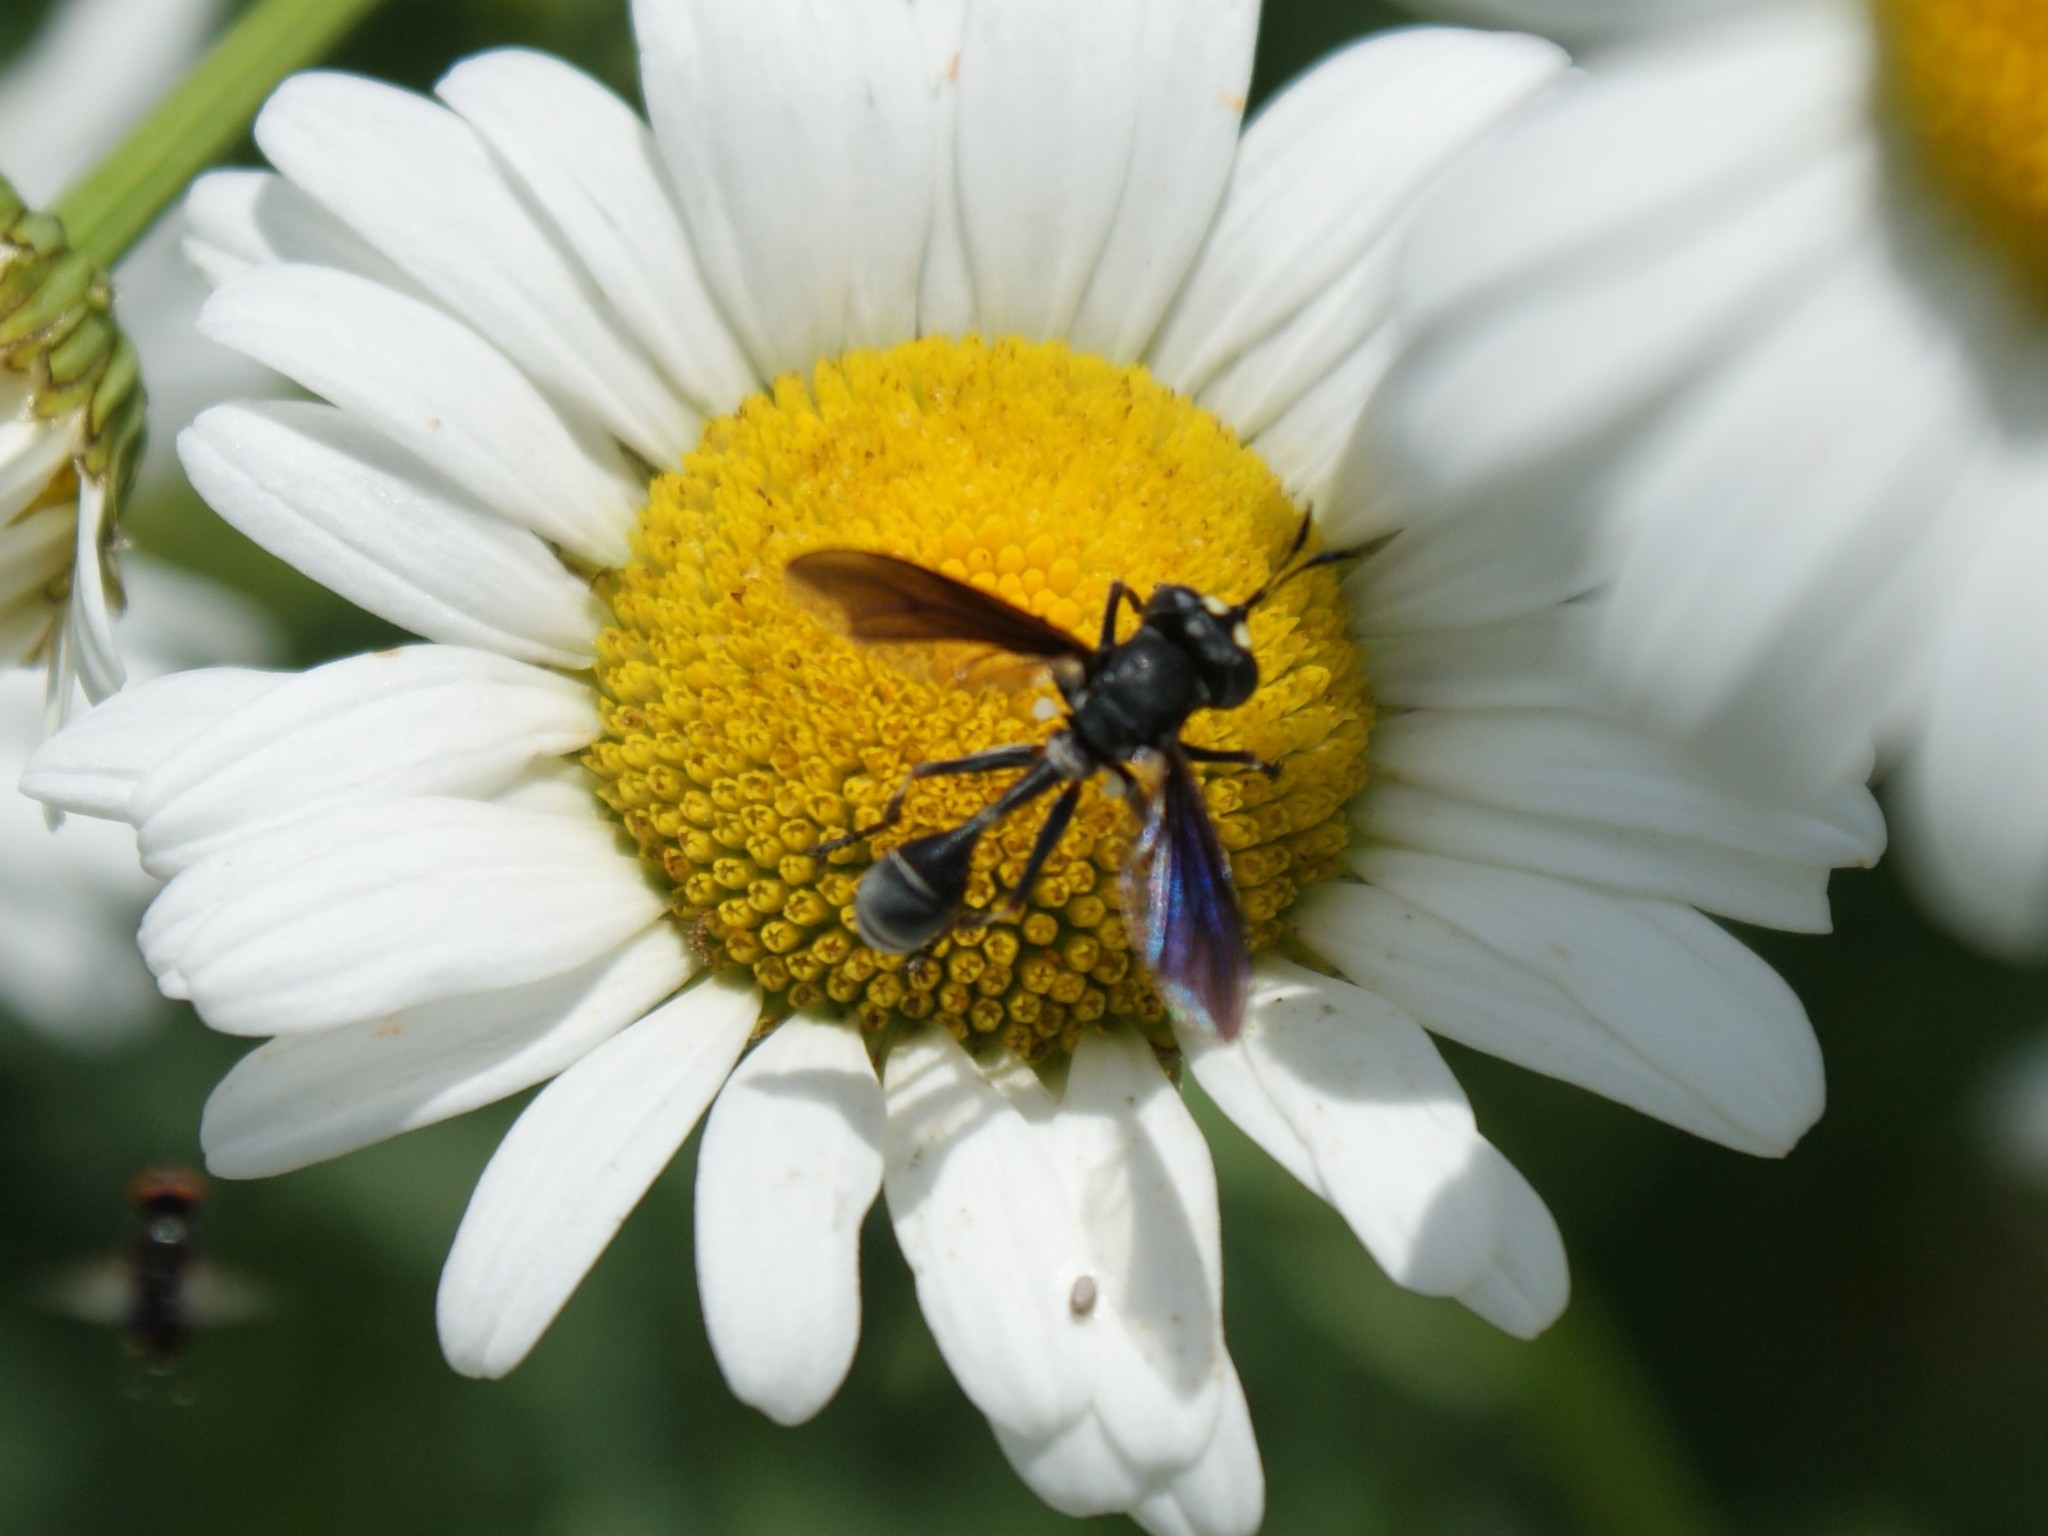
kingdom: Animalia
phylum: Arthropoda
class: Insecta
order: Diptera
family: Conopidae
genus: Physocephala
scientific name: Physocephala tibialis
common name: Common eastern physocephala
